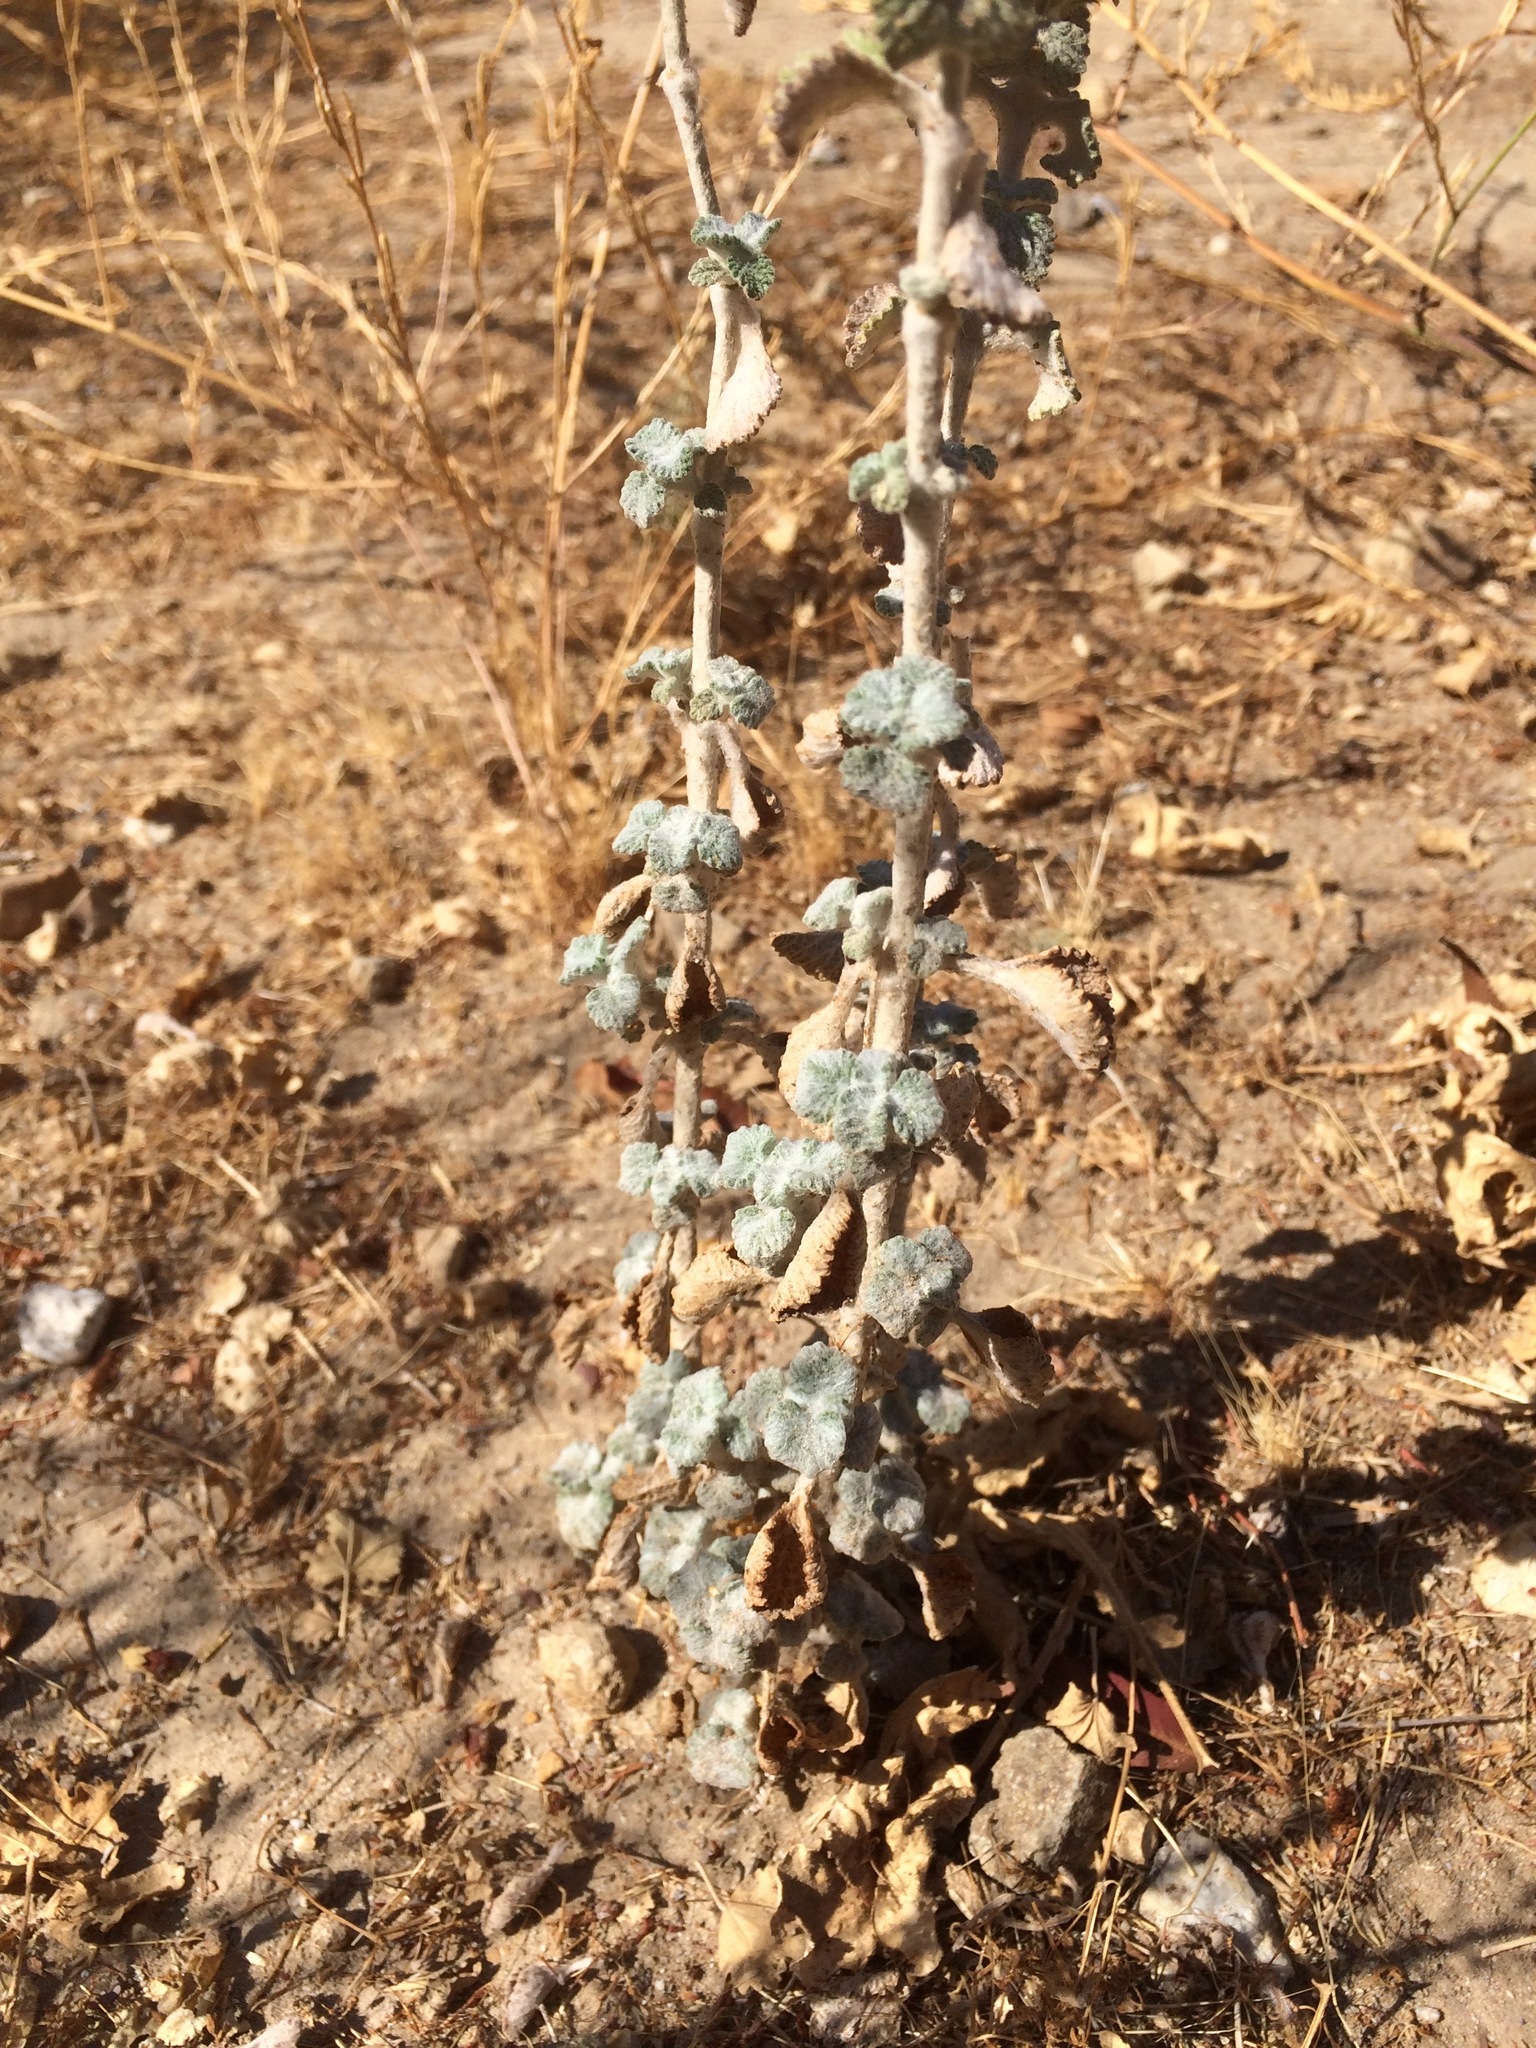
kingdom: Plantae
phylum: Tracheophyta
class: Magnoliopsida
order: Lamiales
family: Lamiaceae
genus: Marrubium
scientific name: Marrubium vulgare
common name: Horehound
